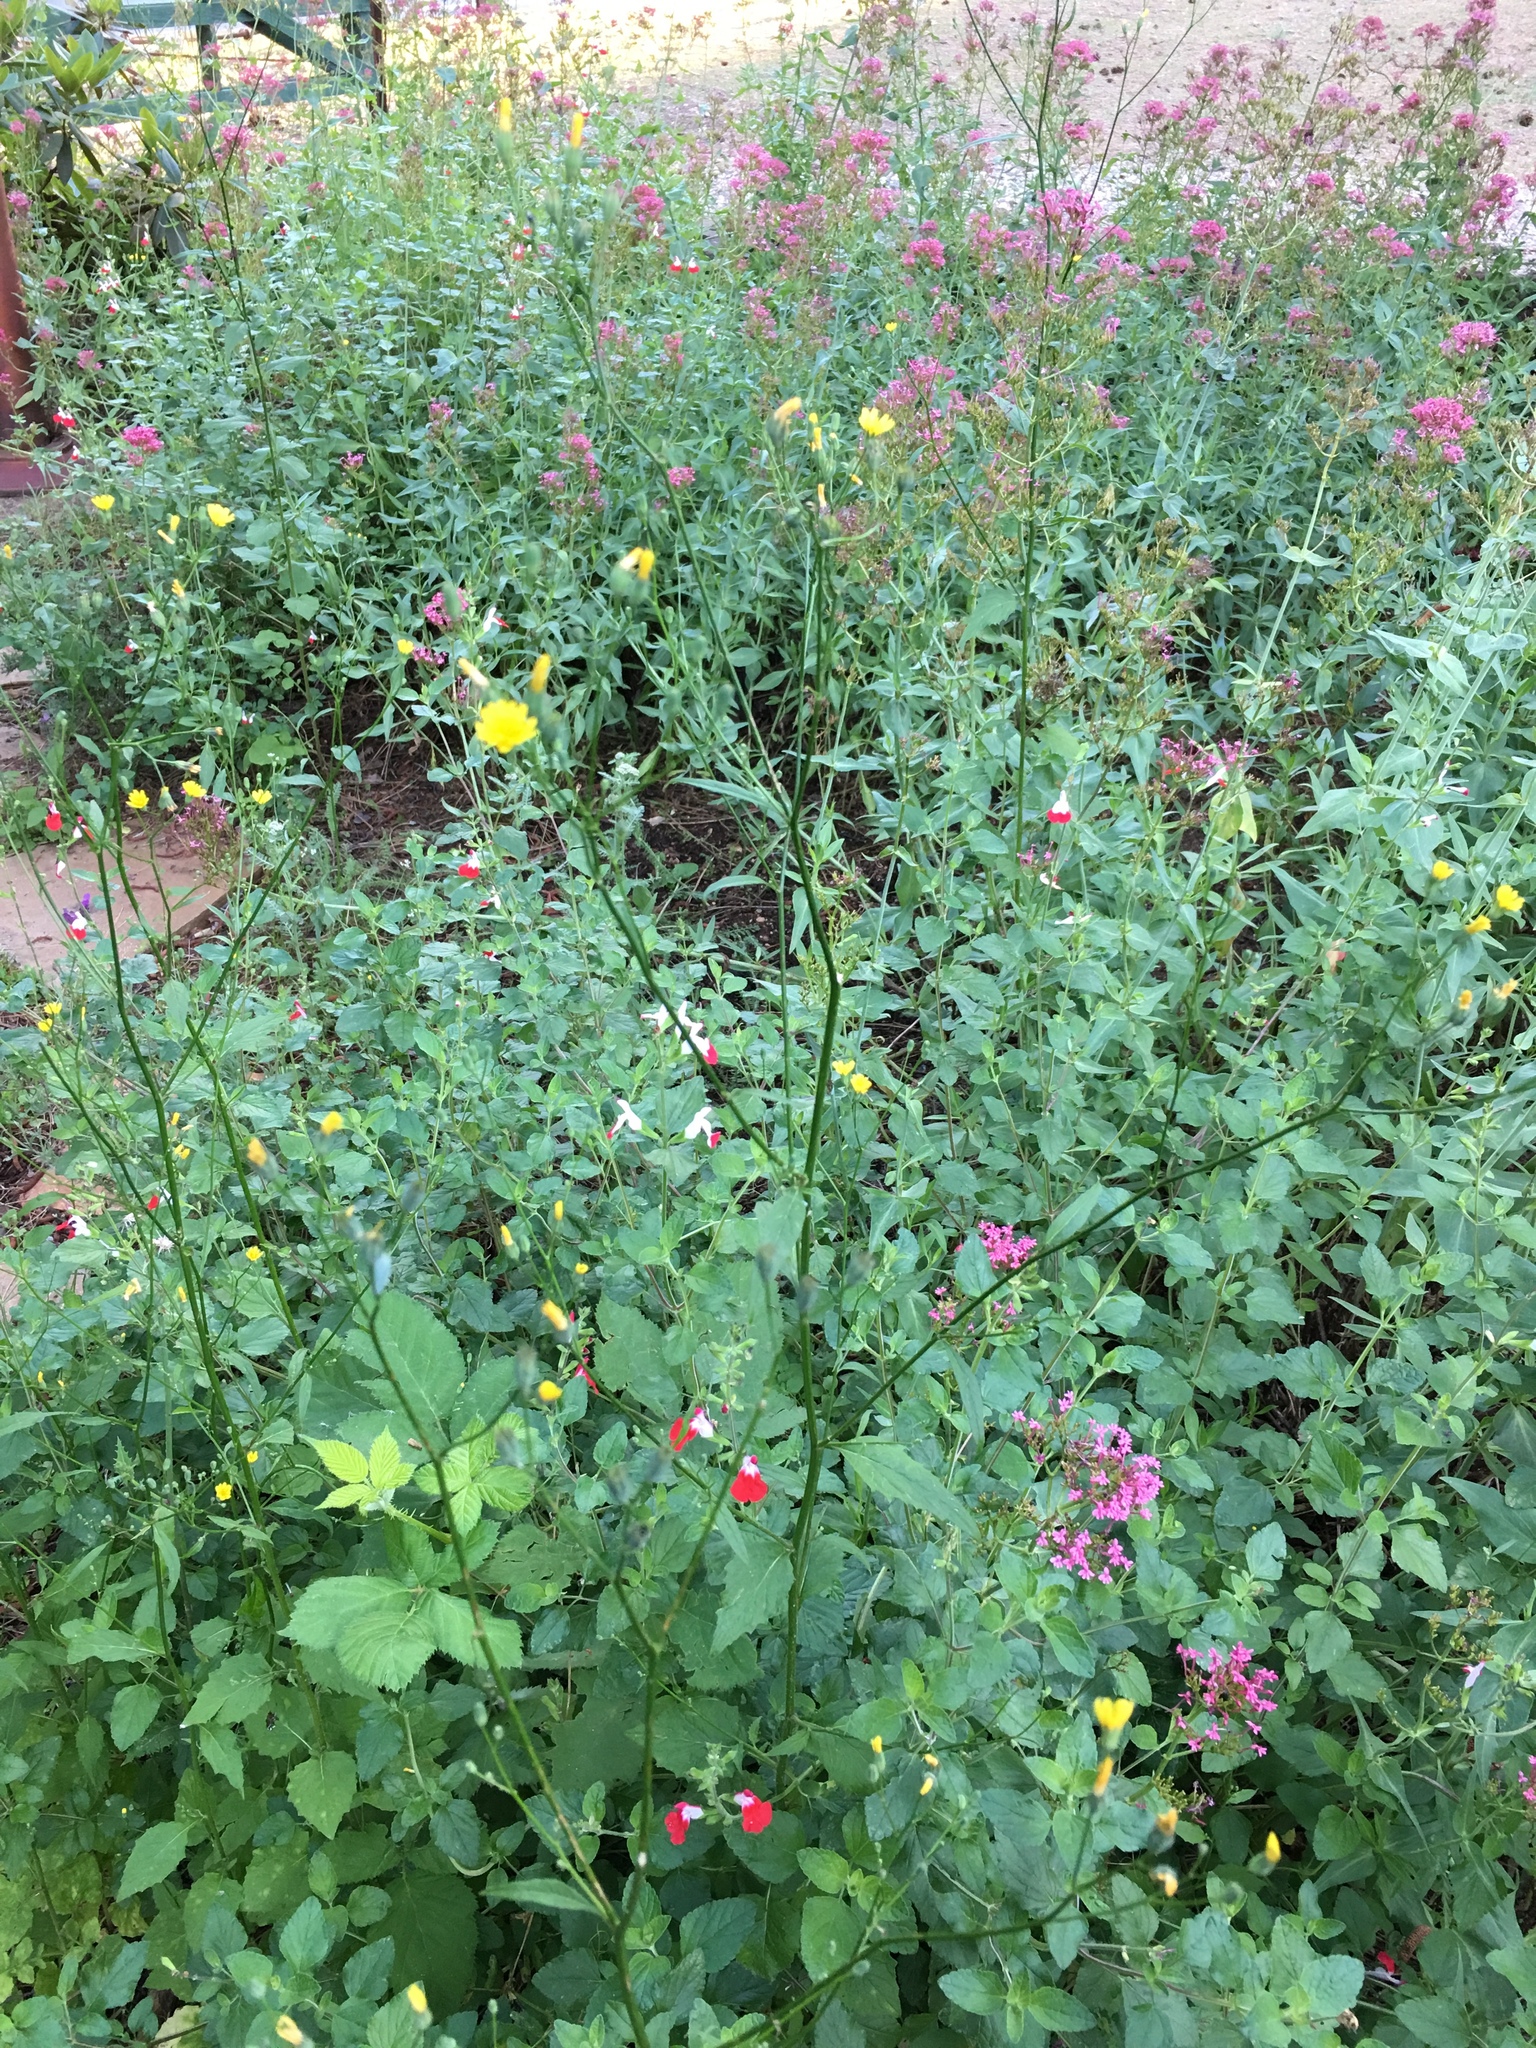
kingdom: Plantae
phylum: Tracheophyta
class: Magnoliopsida
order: Asterales
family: Asteraceae
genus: Lapsana
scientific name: Lapsana communis
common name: Nipplewort
